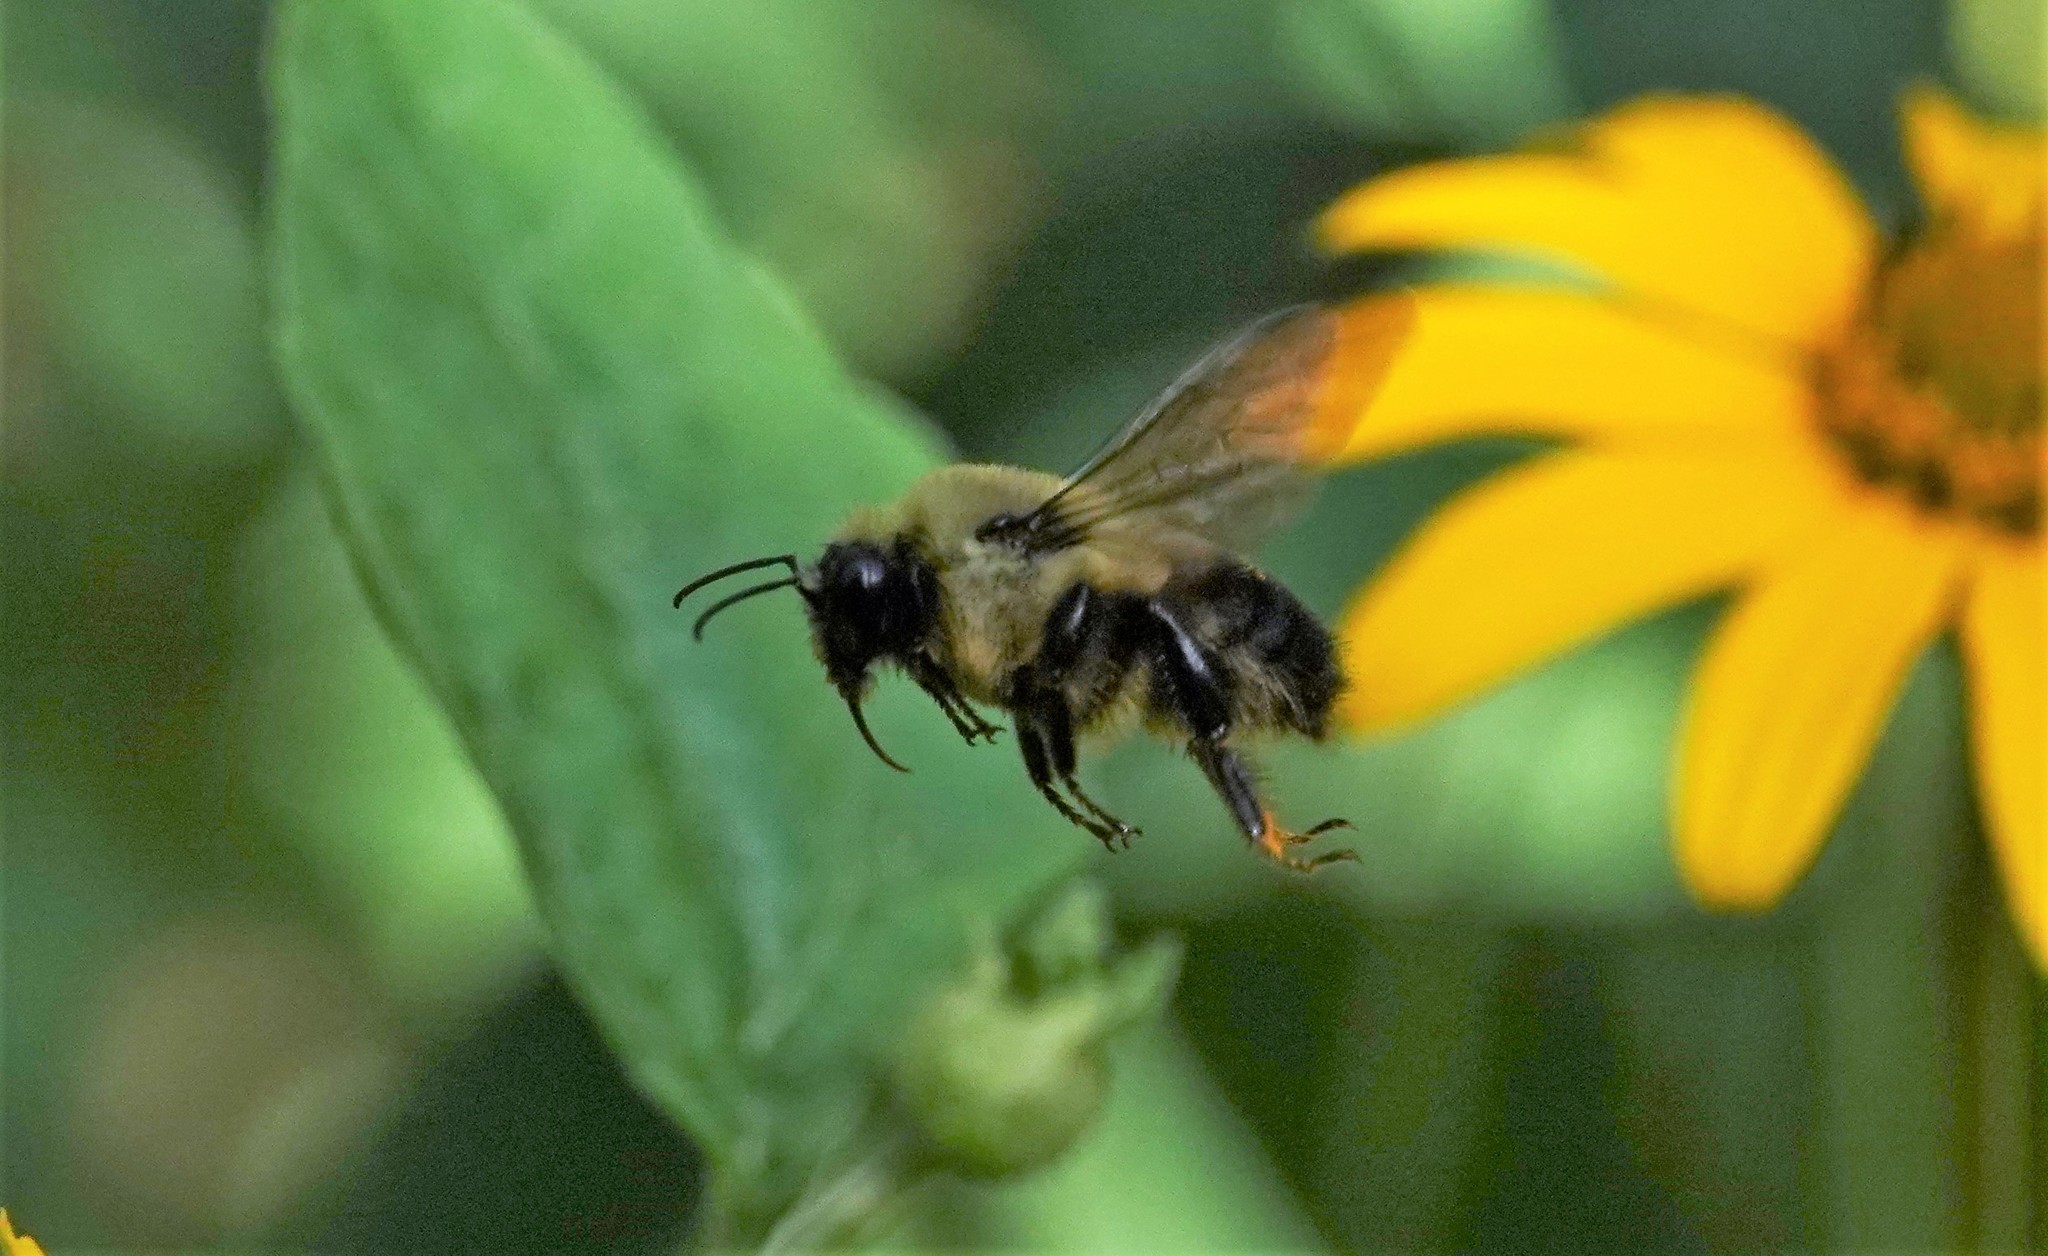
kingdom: Animalia
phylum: Arthropoda
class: Insecta
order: Hymenoptera
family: Apidae
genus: Bombus
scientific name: Bombus griseocollis
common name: Brown-belted bumble bee
